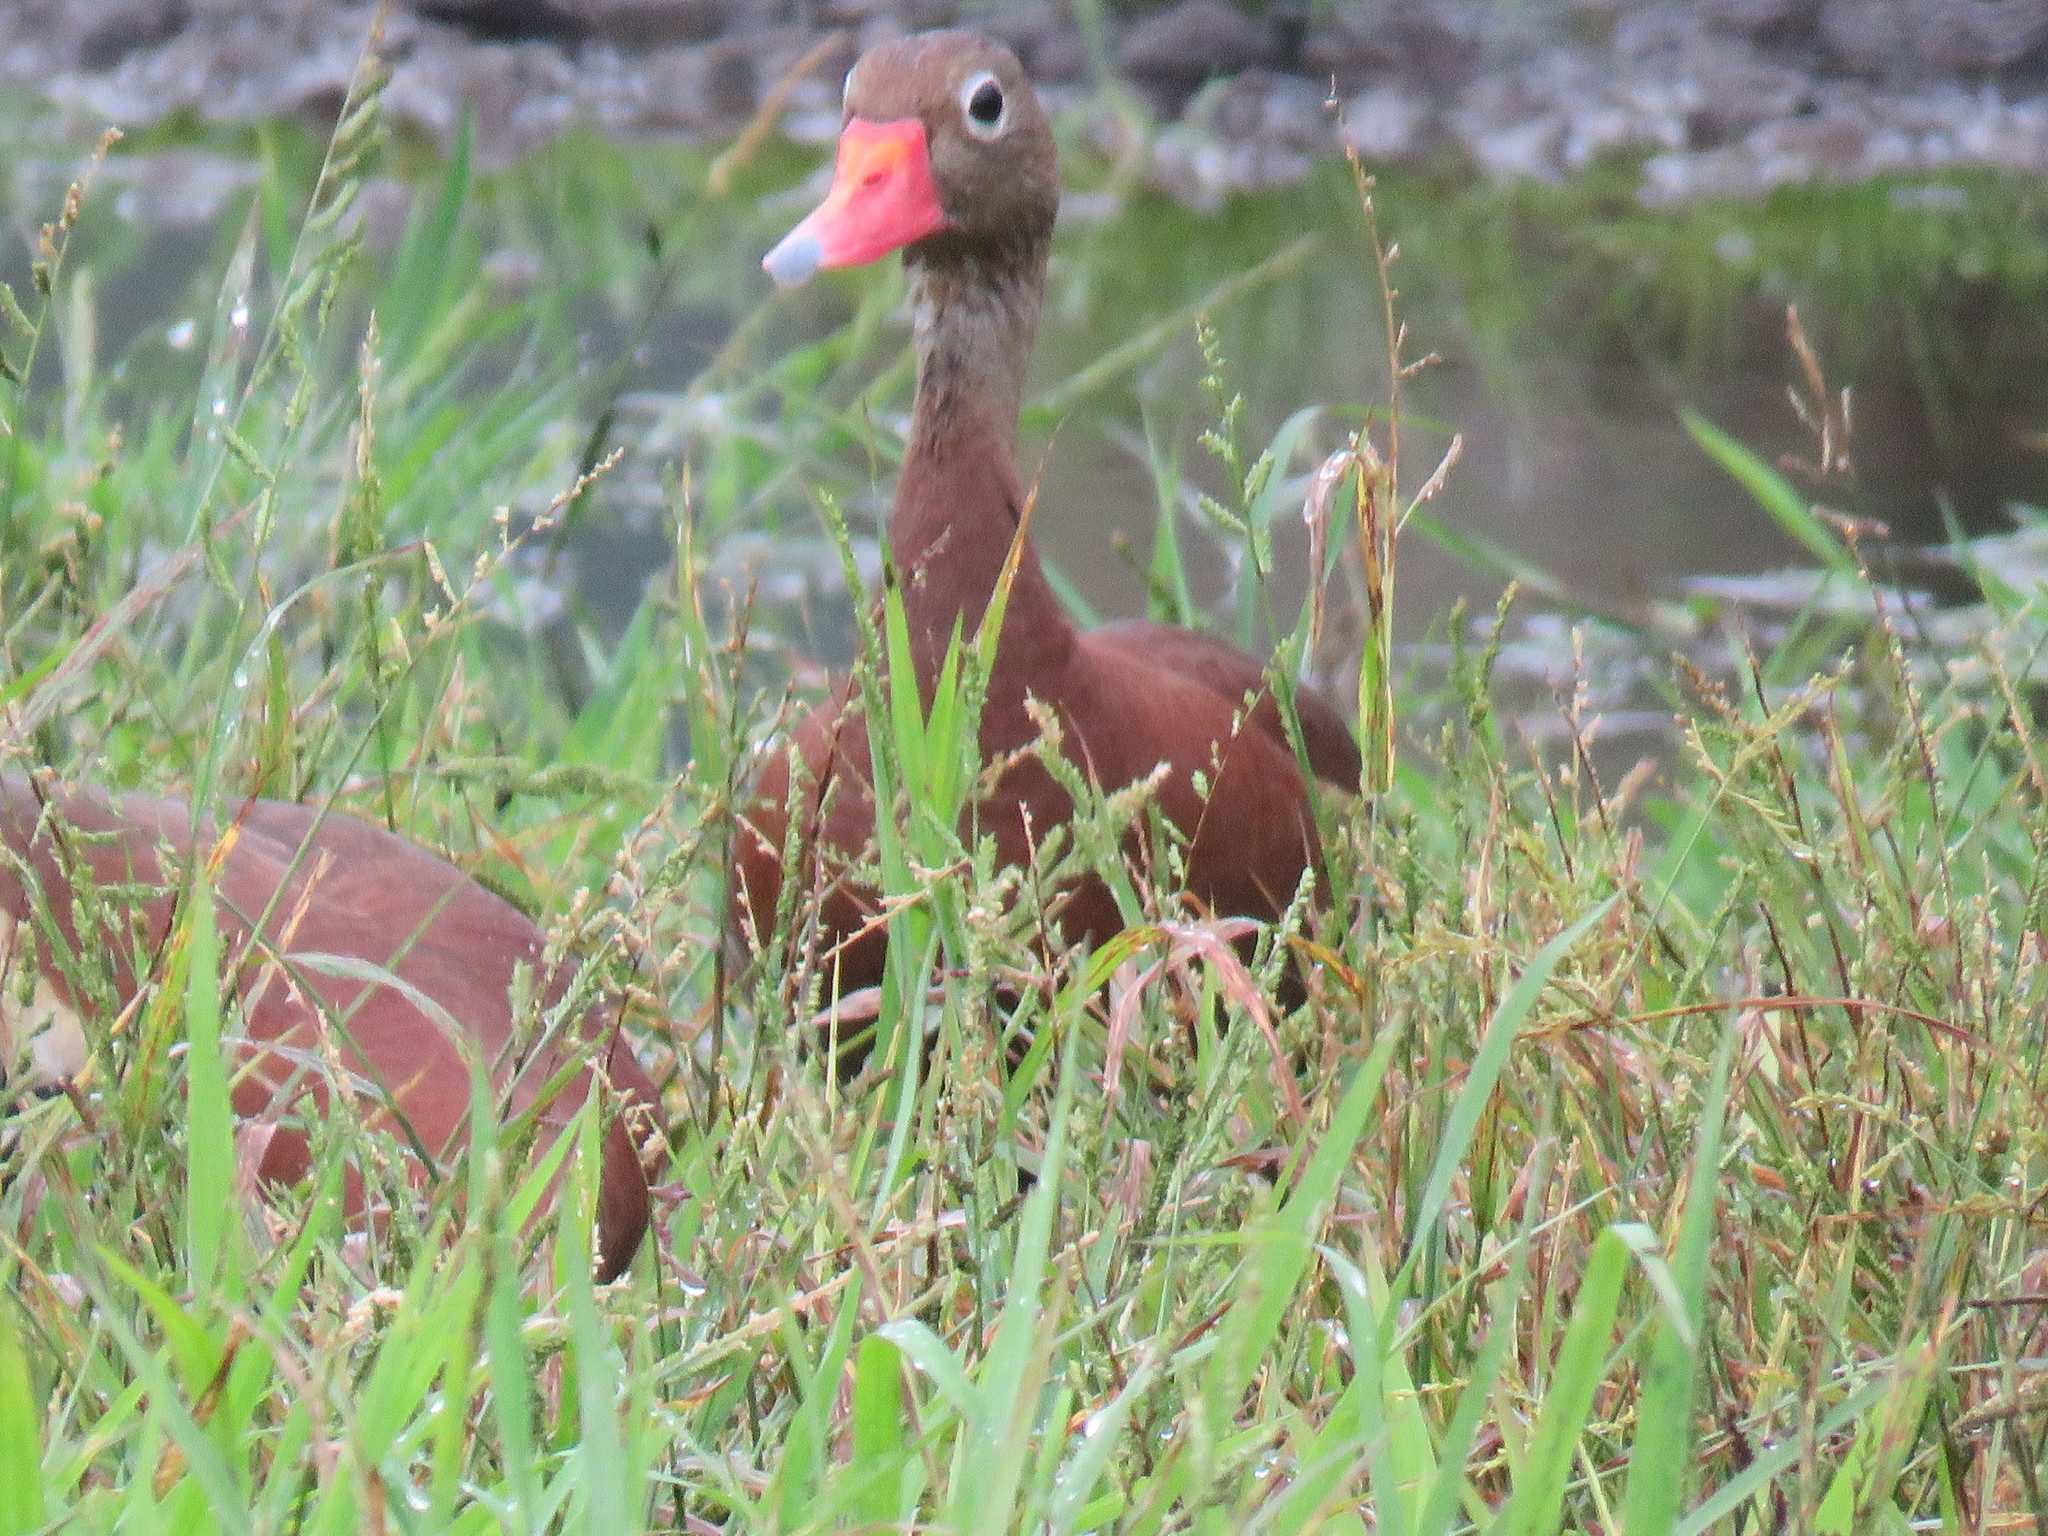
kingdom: Animalia
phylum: Chordata
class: Aves
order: Anseriformes
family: Anatidae
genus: Dendrocygna
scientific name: Dendrocygna autumnalis
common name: Black-bellied whistling duck
